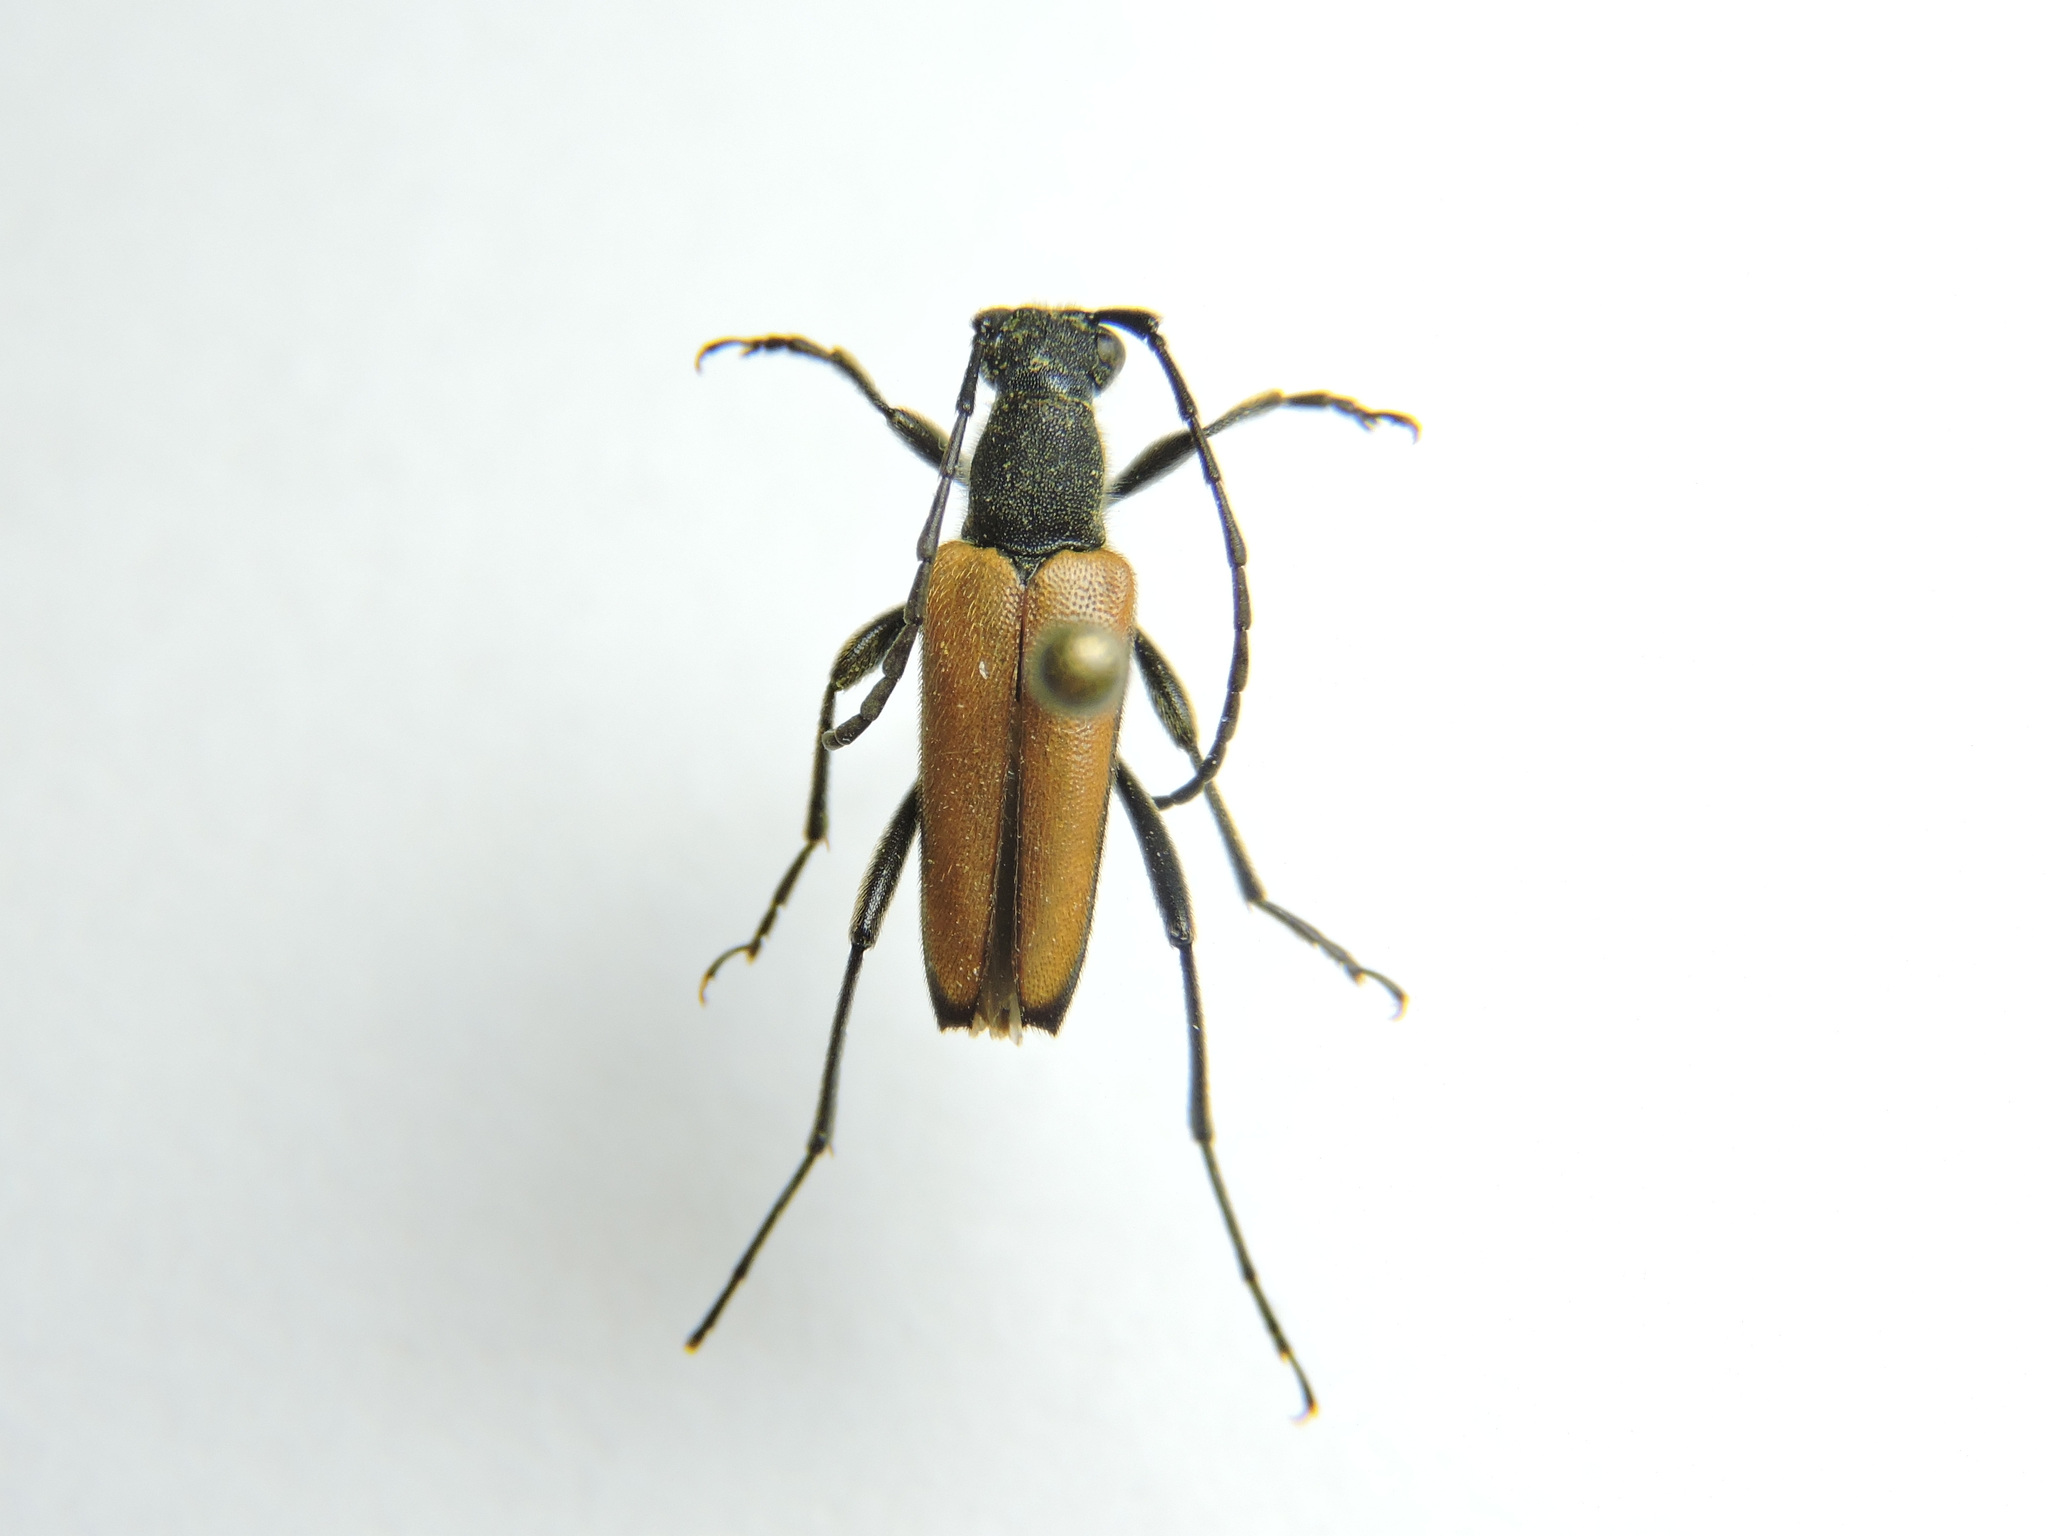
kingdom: Animalia
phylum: Arthropoda
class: Insecta
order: Coleoptera
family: Cerambycidae
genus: Anastrangalia
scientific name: Anastrangalia reyi
